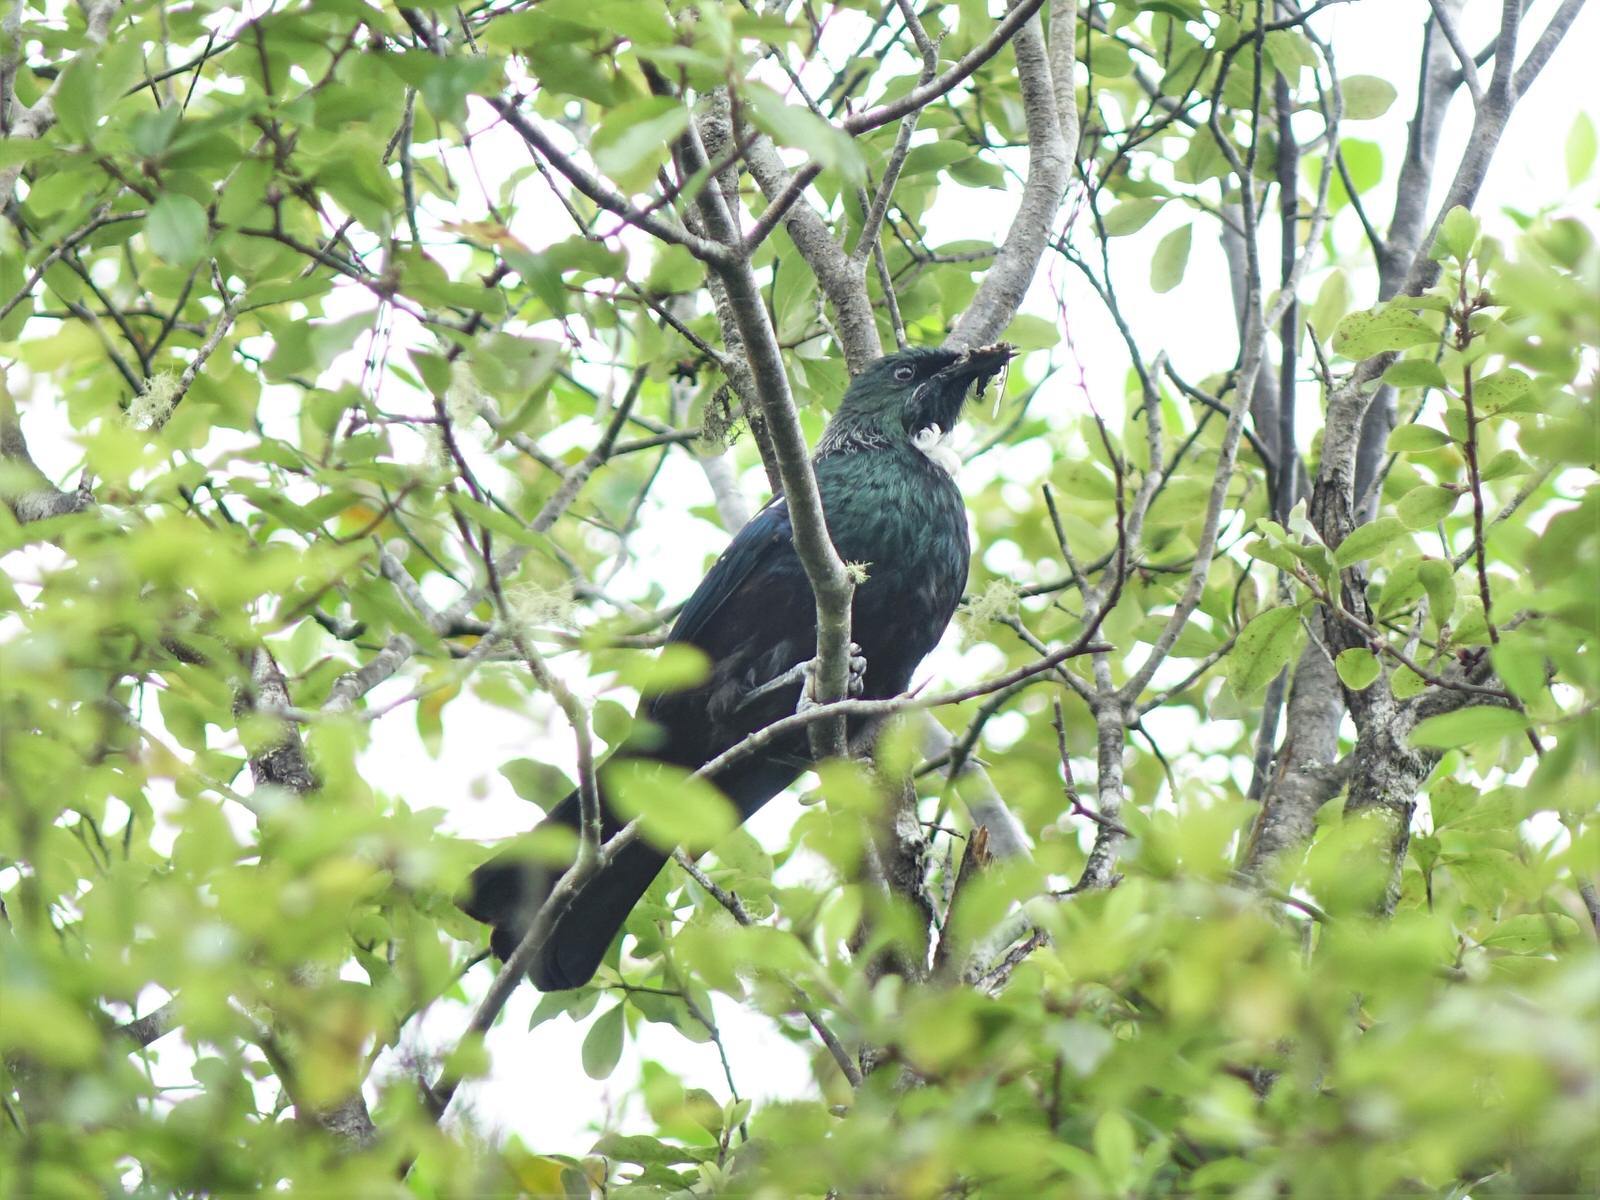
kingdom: Animalia
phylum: Chordata
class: Aves
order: Passeriformes
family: Meliphagidae
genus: Prosthemadera
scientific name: Prosthemadera novaeseelandiae
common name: Tui
